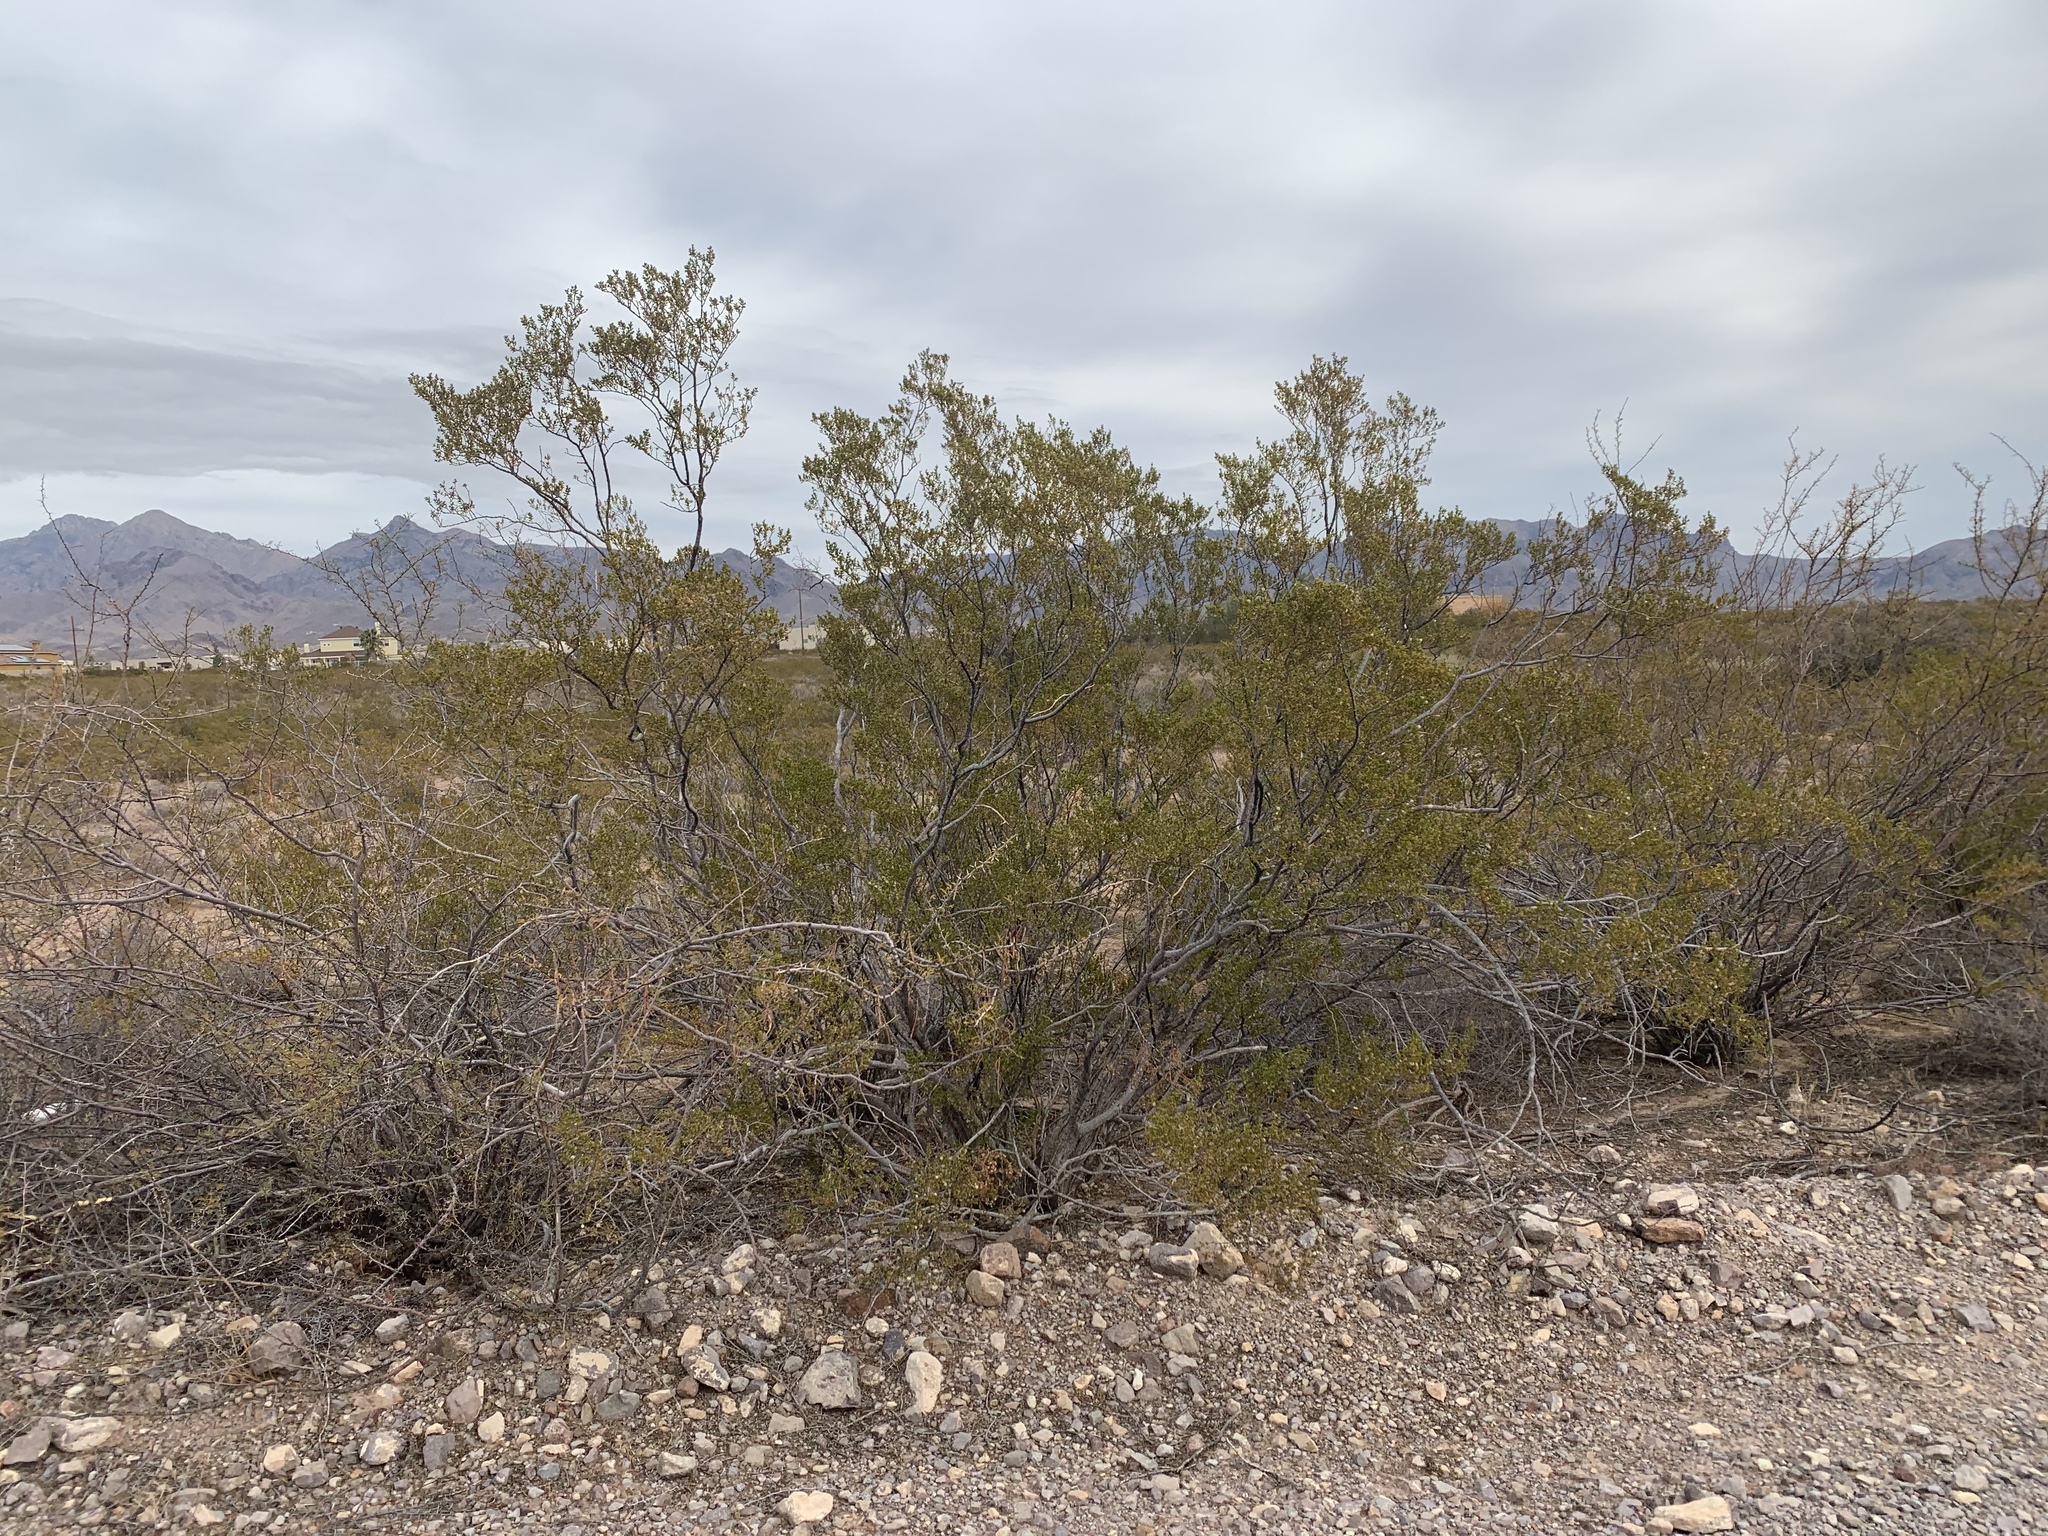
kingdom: Plantae
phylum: Tracheophyta
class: Magnoliopsida
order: Zygophyllales
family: Zygophyllaceae
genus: Larrea
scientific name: Larrea tridentata
